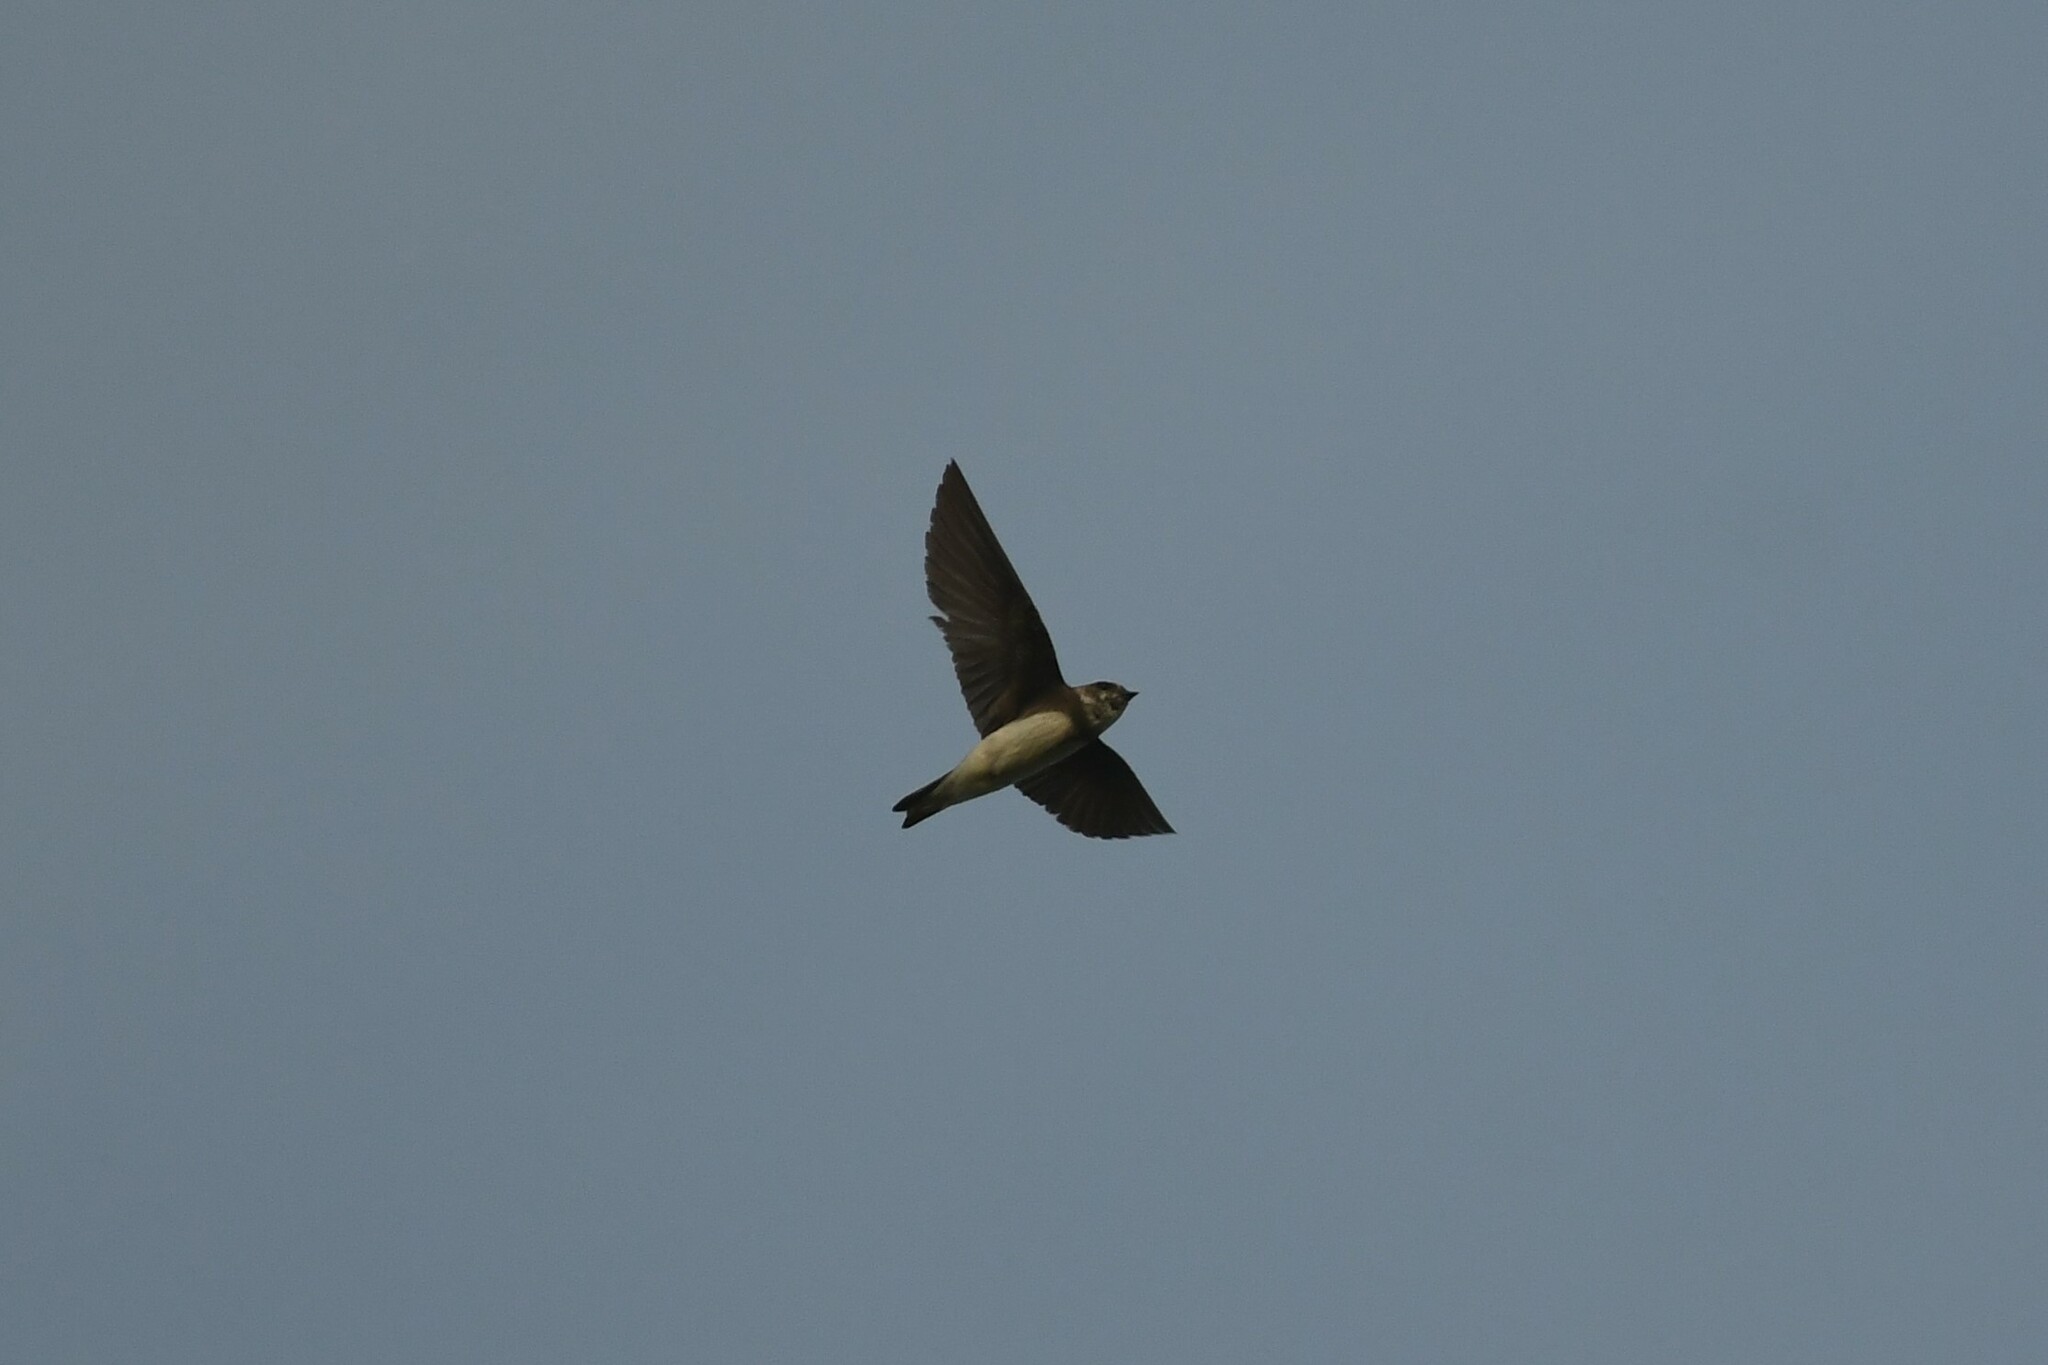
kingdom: Animalia
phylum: Chordata
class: Aves
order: Passeriformes
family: Hirundinidae
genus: Riparia
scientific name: Riparia riparia
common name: Sand martin
